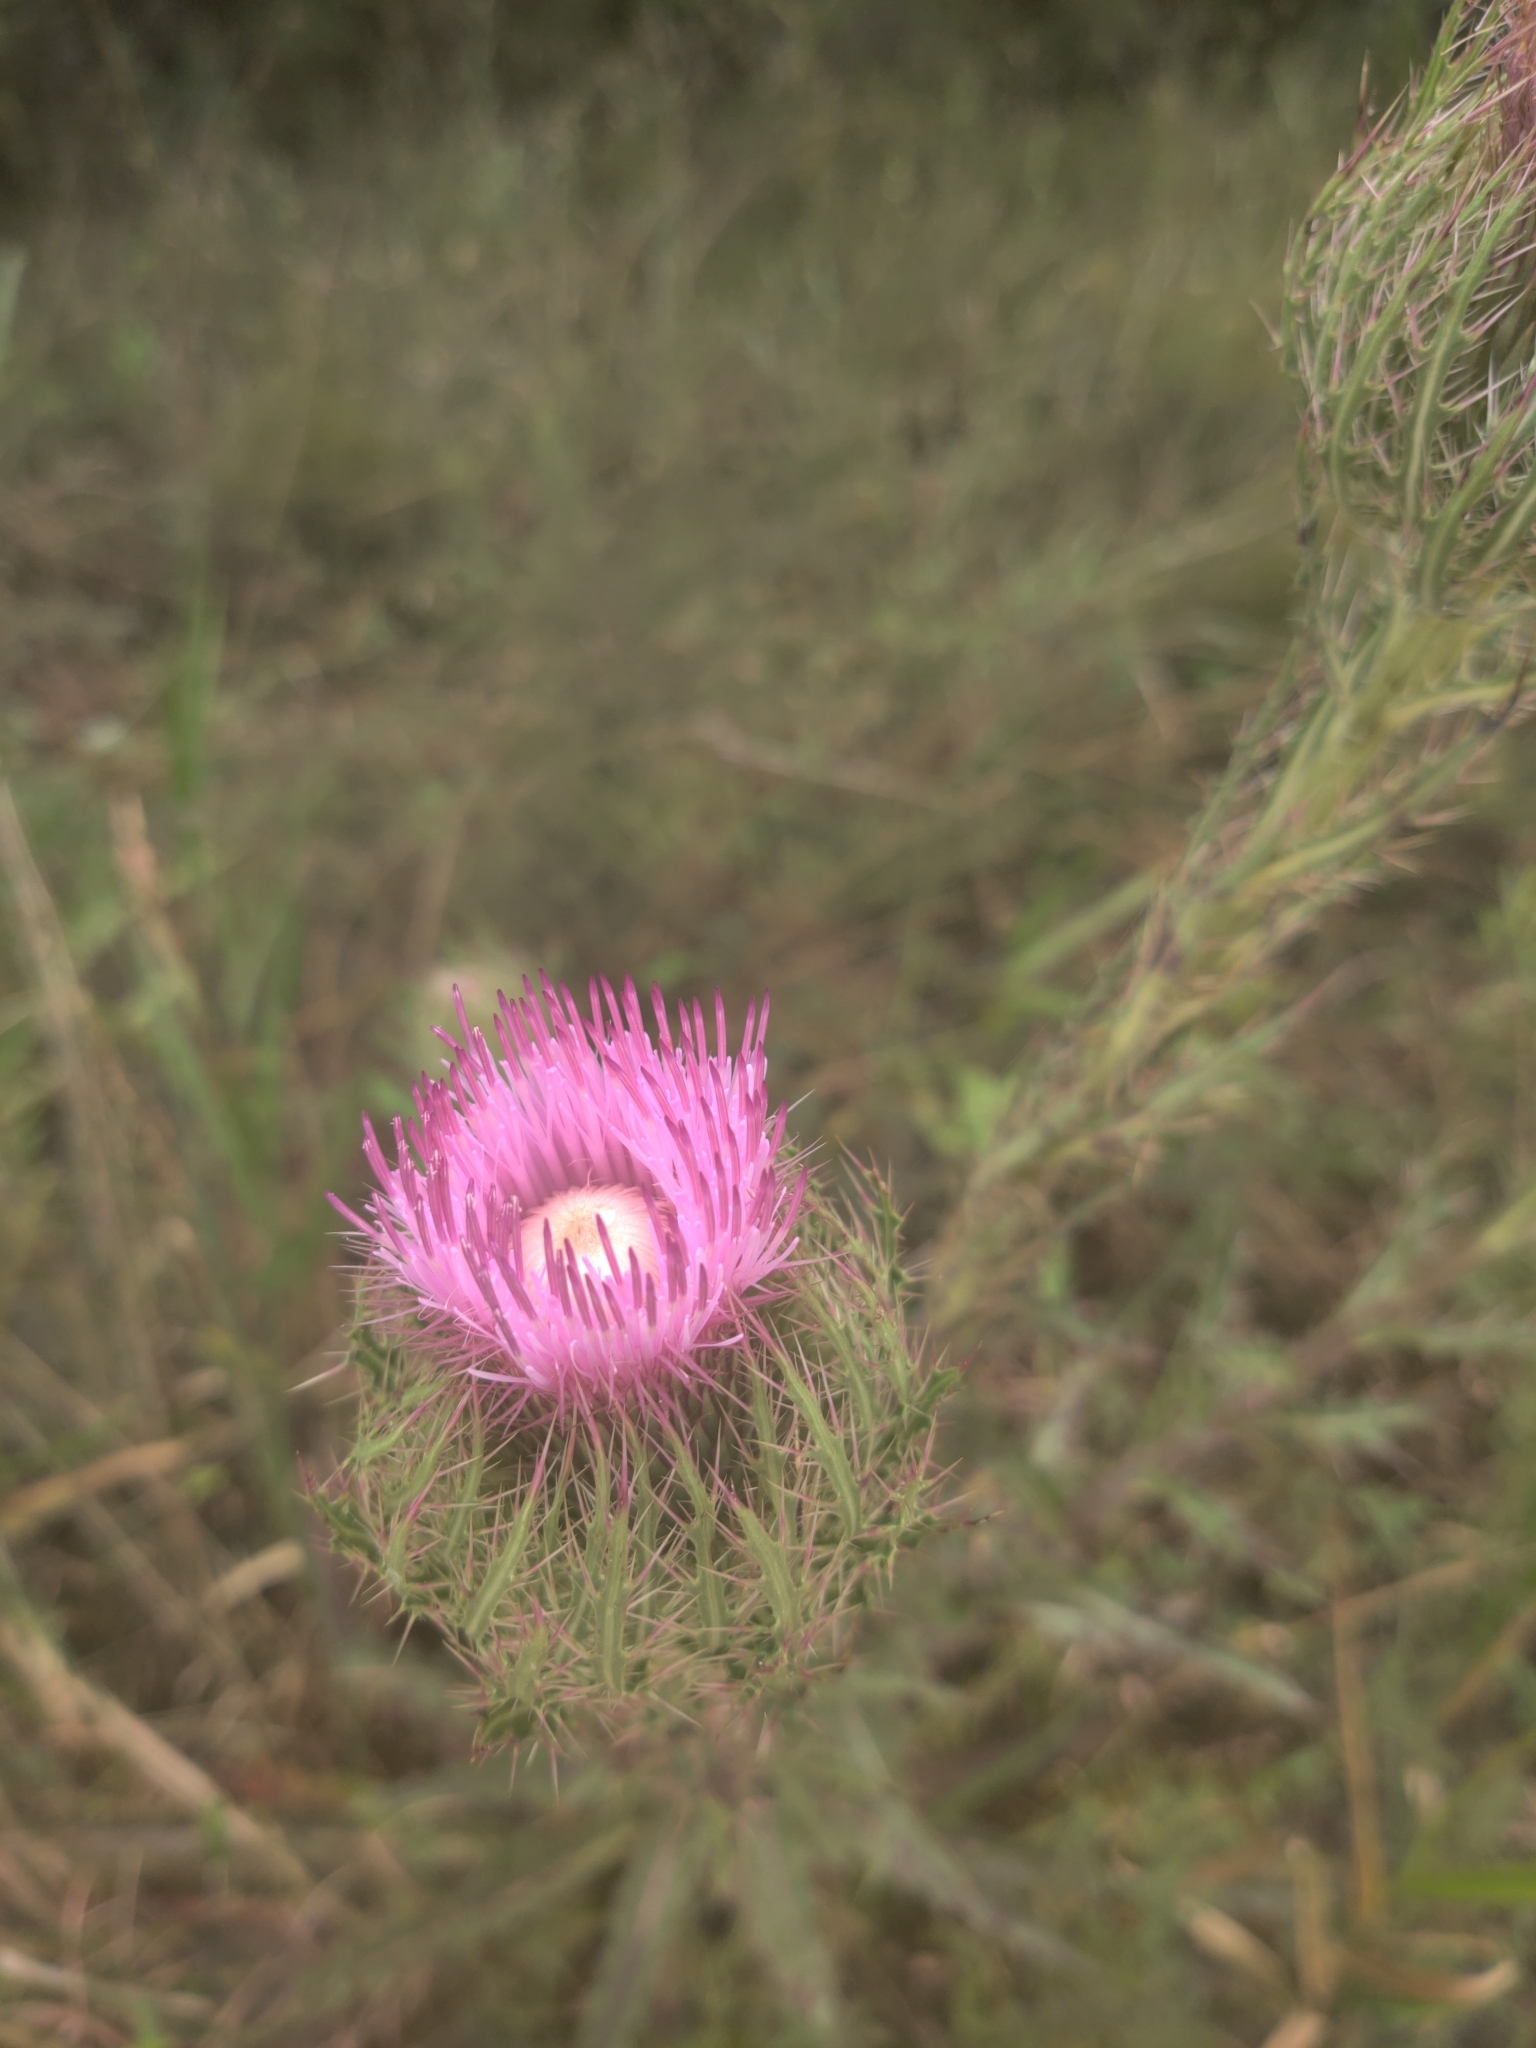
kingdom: Plantae
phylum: Tracheophyta
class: Magnoliopsida
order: Asterales
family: Asteraceae
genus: Cirsium
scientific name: Cirsium horridulum
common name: Bristly thistle
